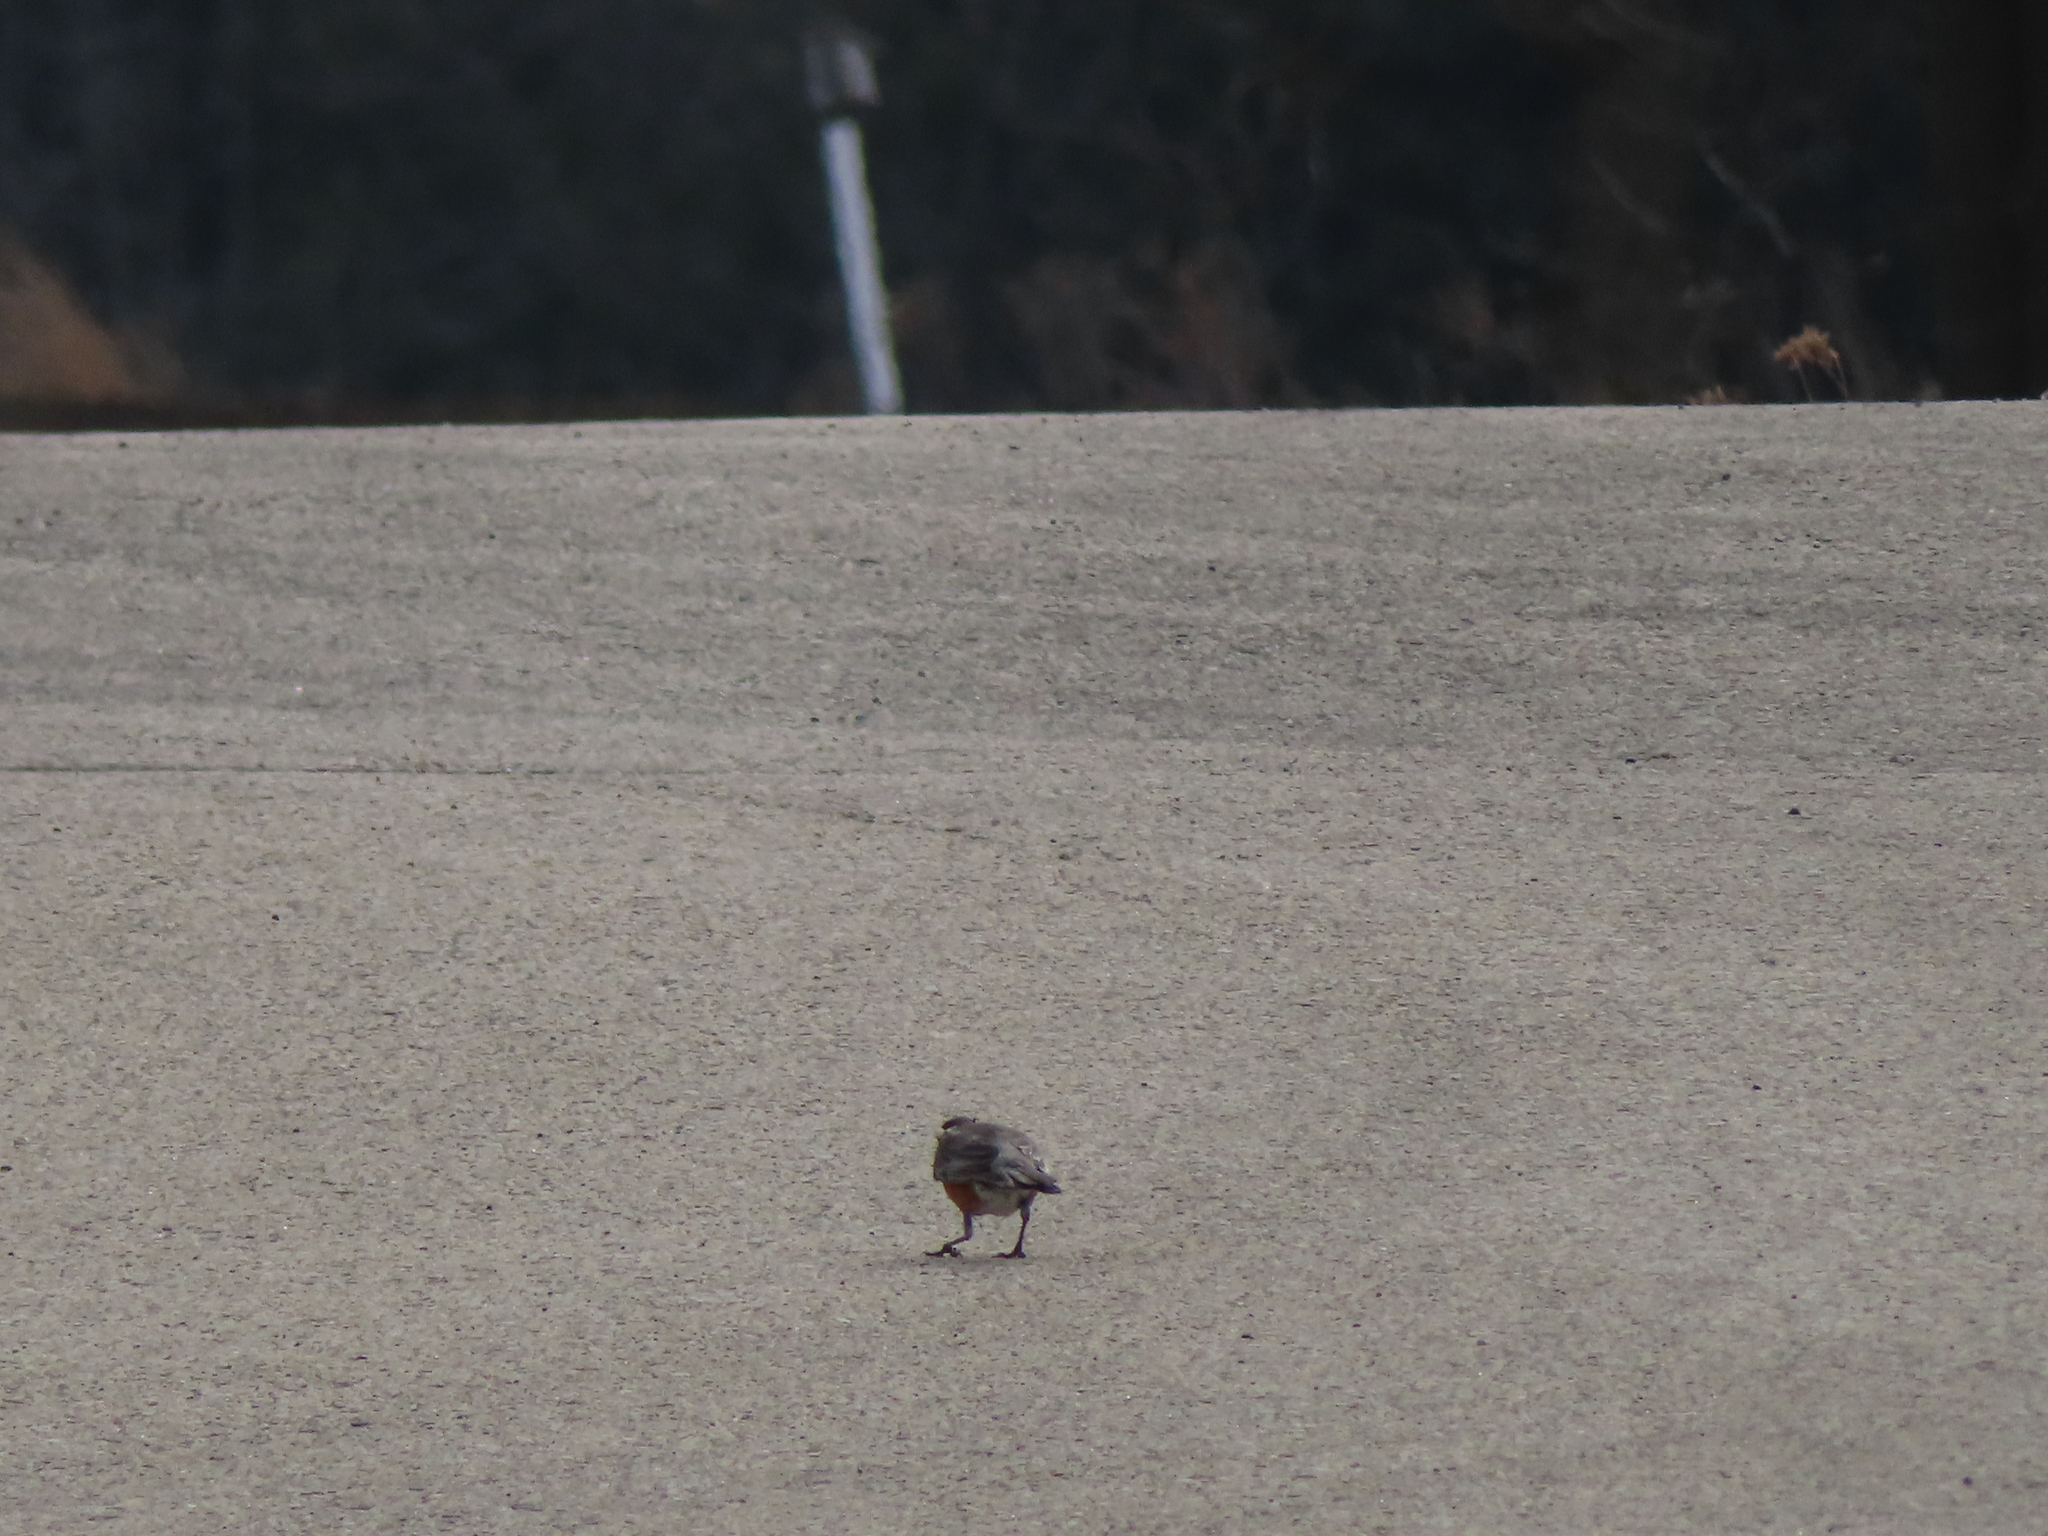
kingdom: Animalia
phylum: Chordata
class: Aves
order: Passeriformes
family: Turdidae
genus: Turdus
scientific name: Turdus migratorius
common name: American robin
